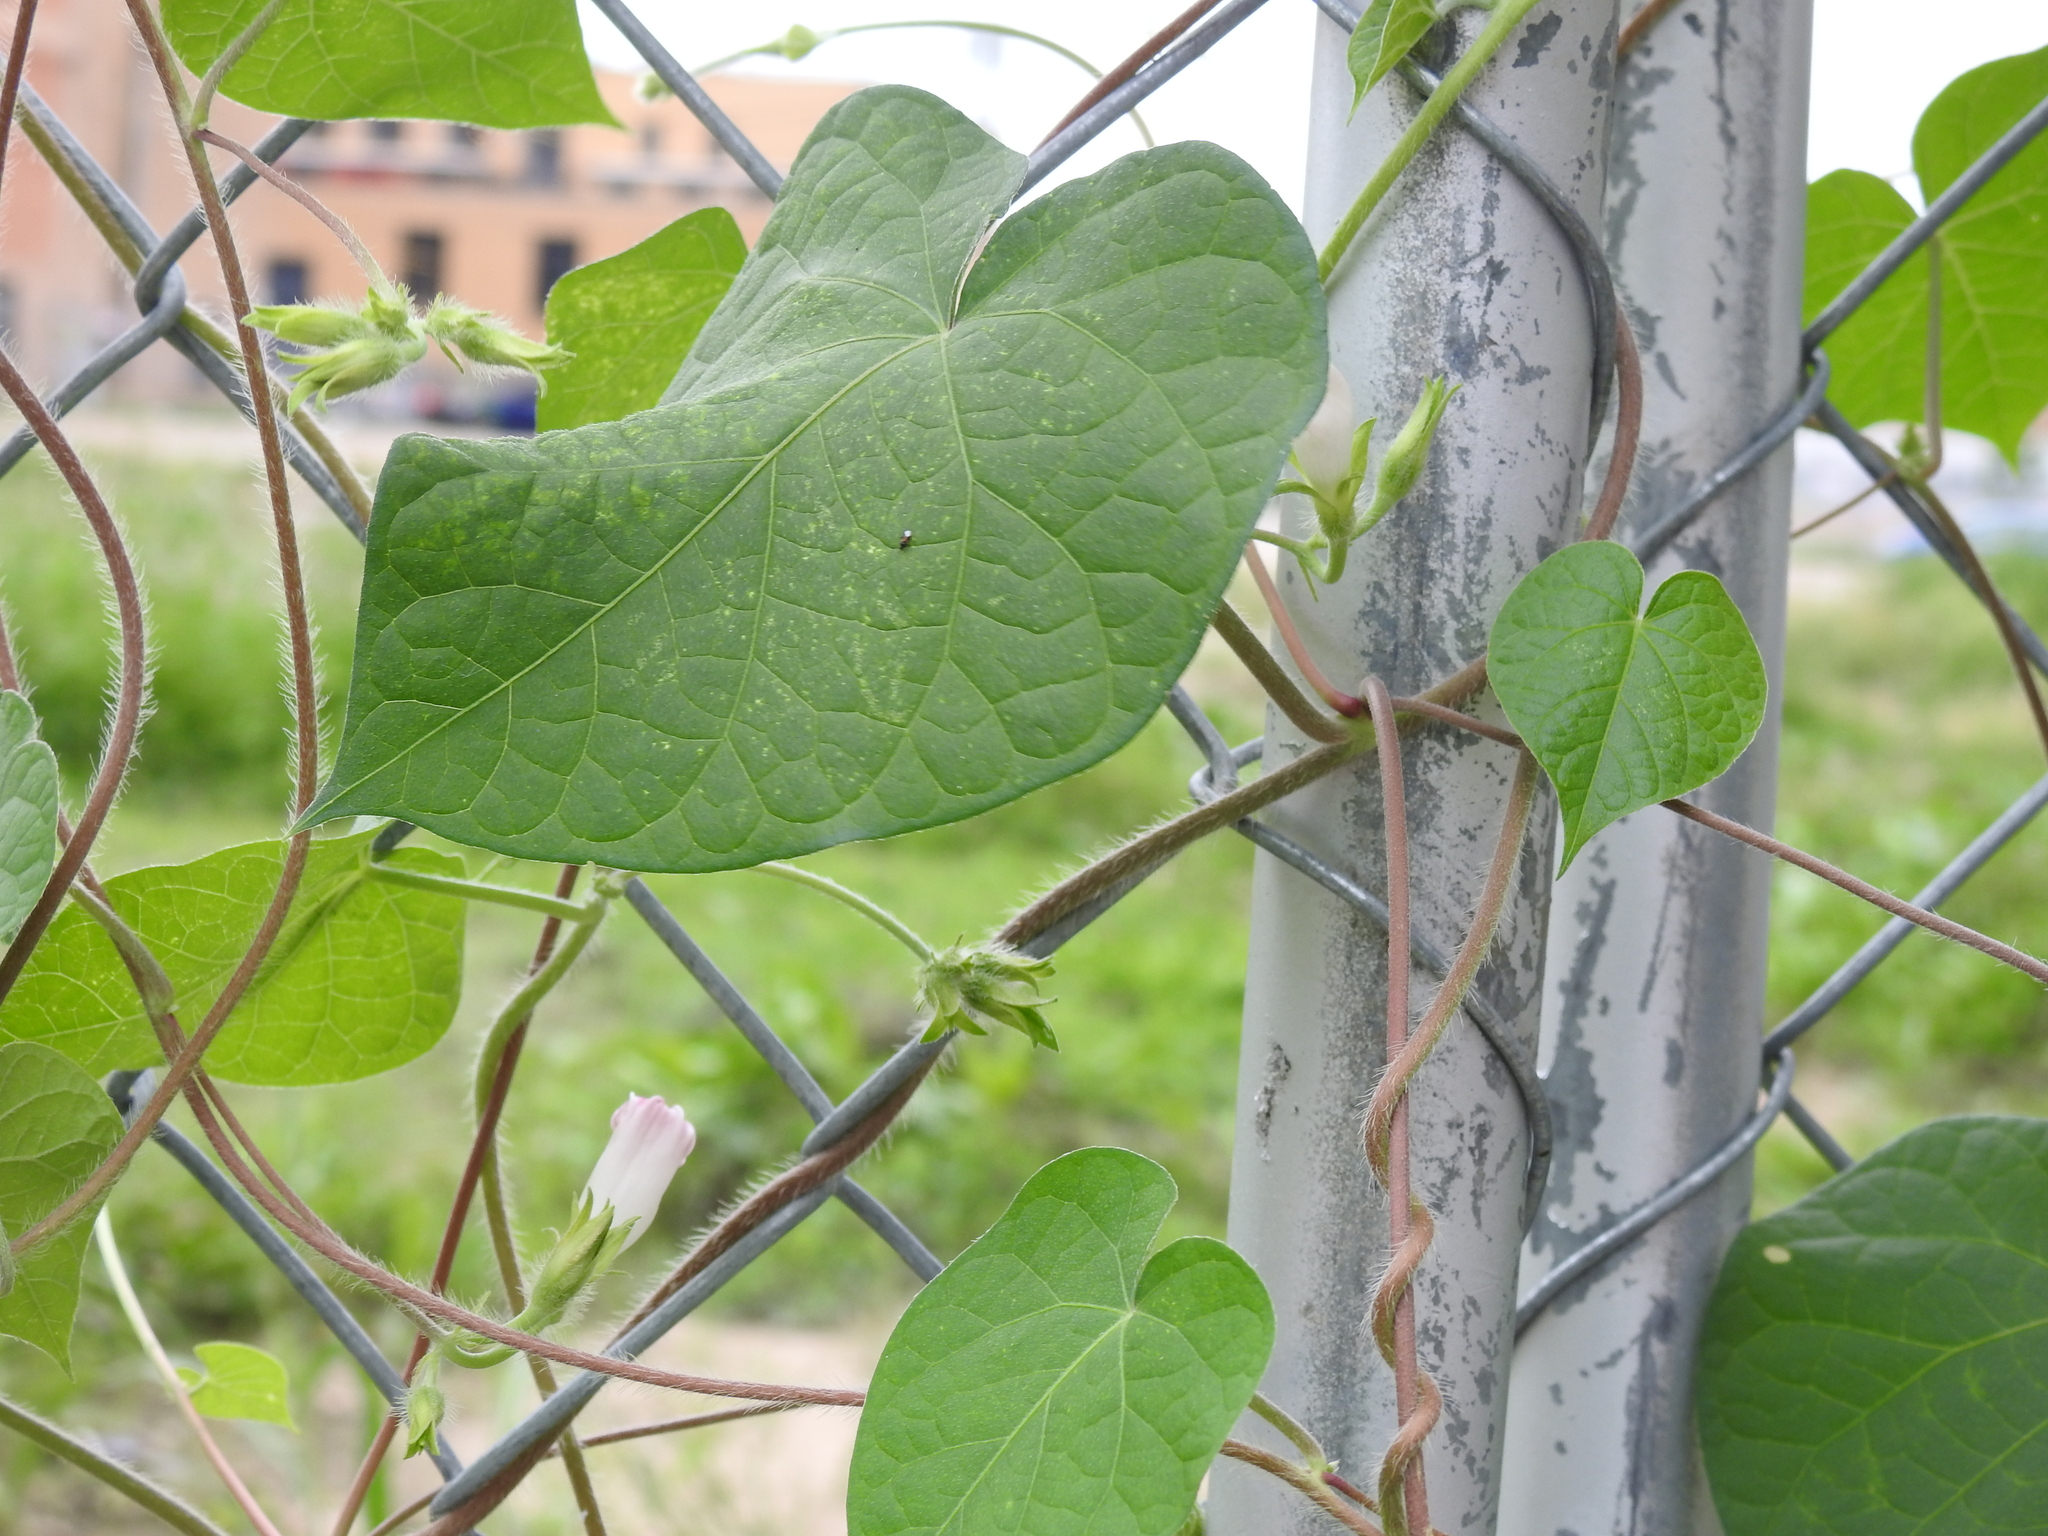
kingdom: Plantae
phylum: Tracheophyta
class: Magnoliopsida
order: Solanales
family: Convolvulaceae
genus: Ipomoea
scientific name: Ipomoea purpurea
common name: Common morning-glory
